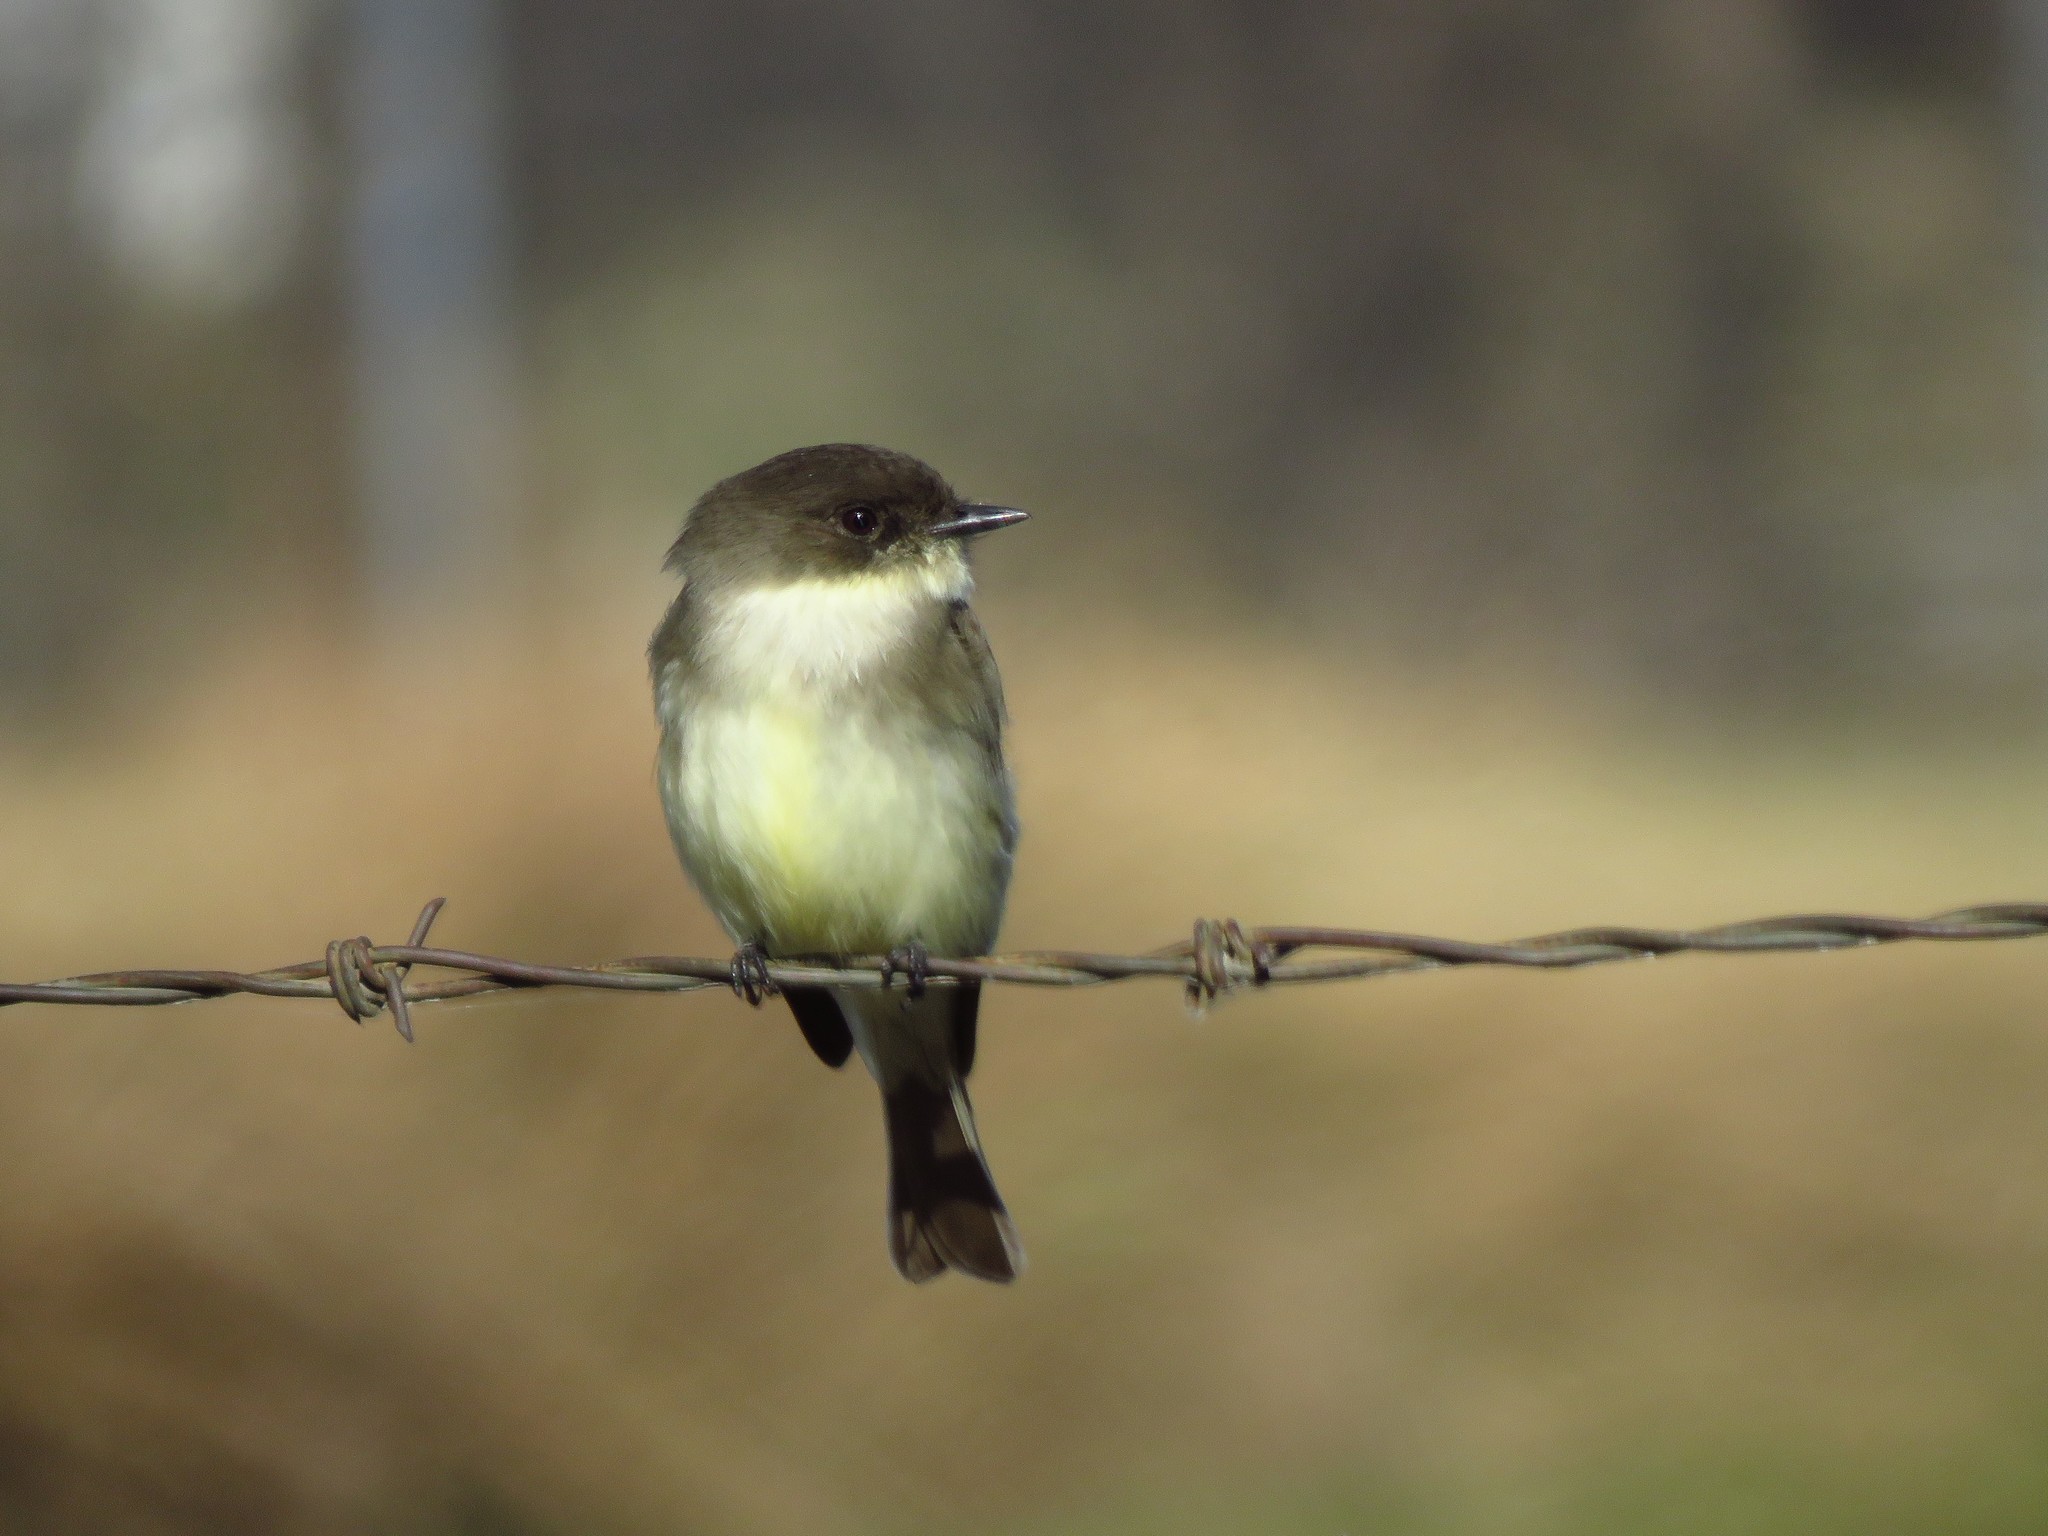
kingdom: Animalia
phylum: Chordata
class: Aves
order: Passeriformes
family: Tyrannidae
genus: Sayornis
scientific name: Sayornis phoebe
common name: Eastern phoebe
